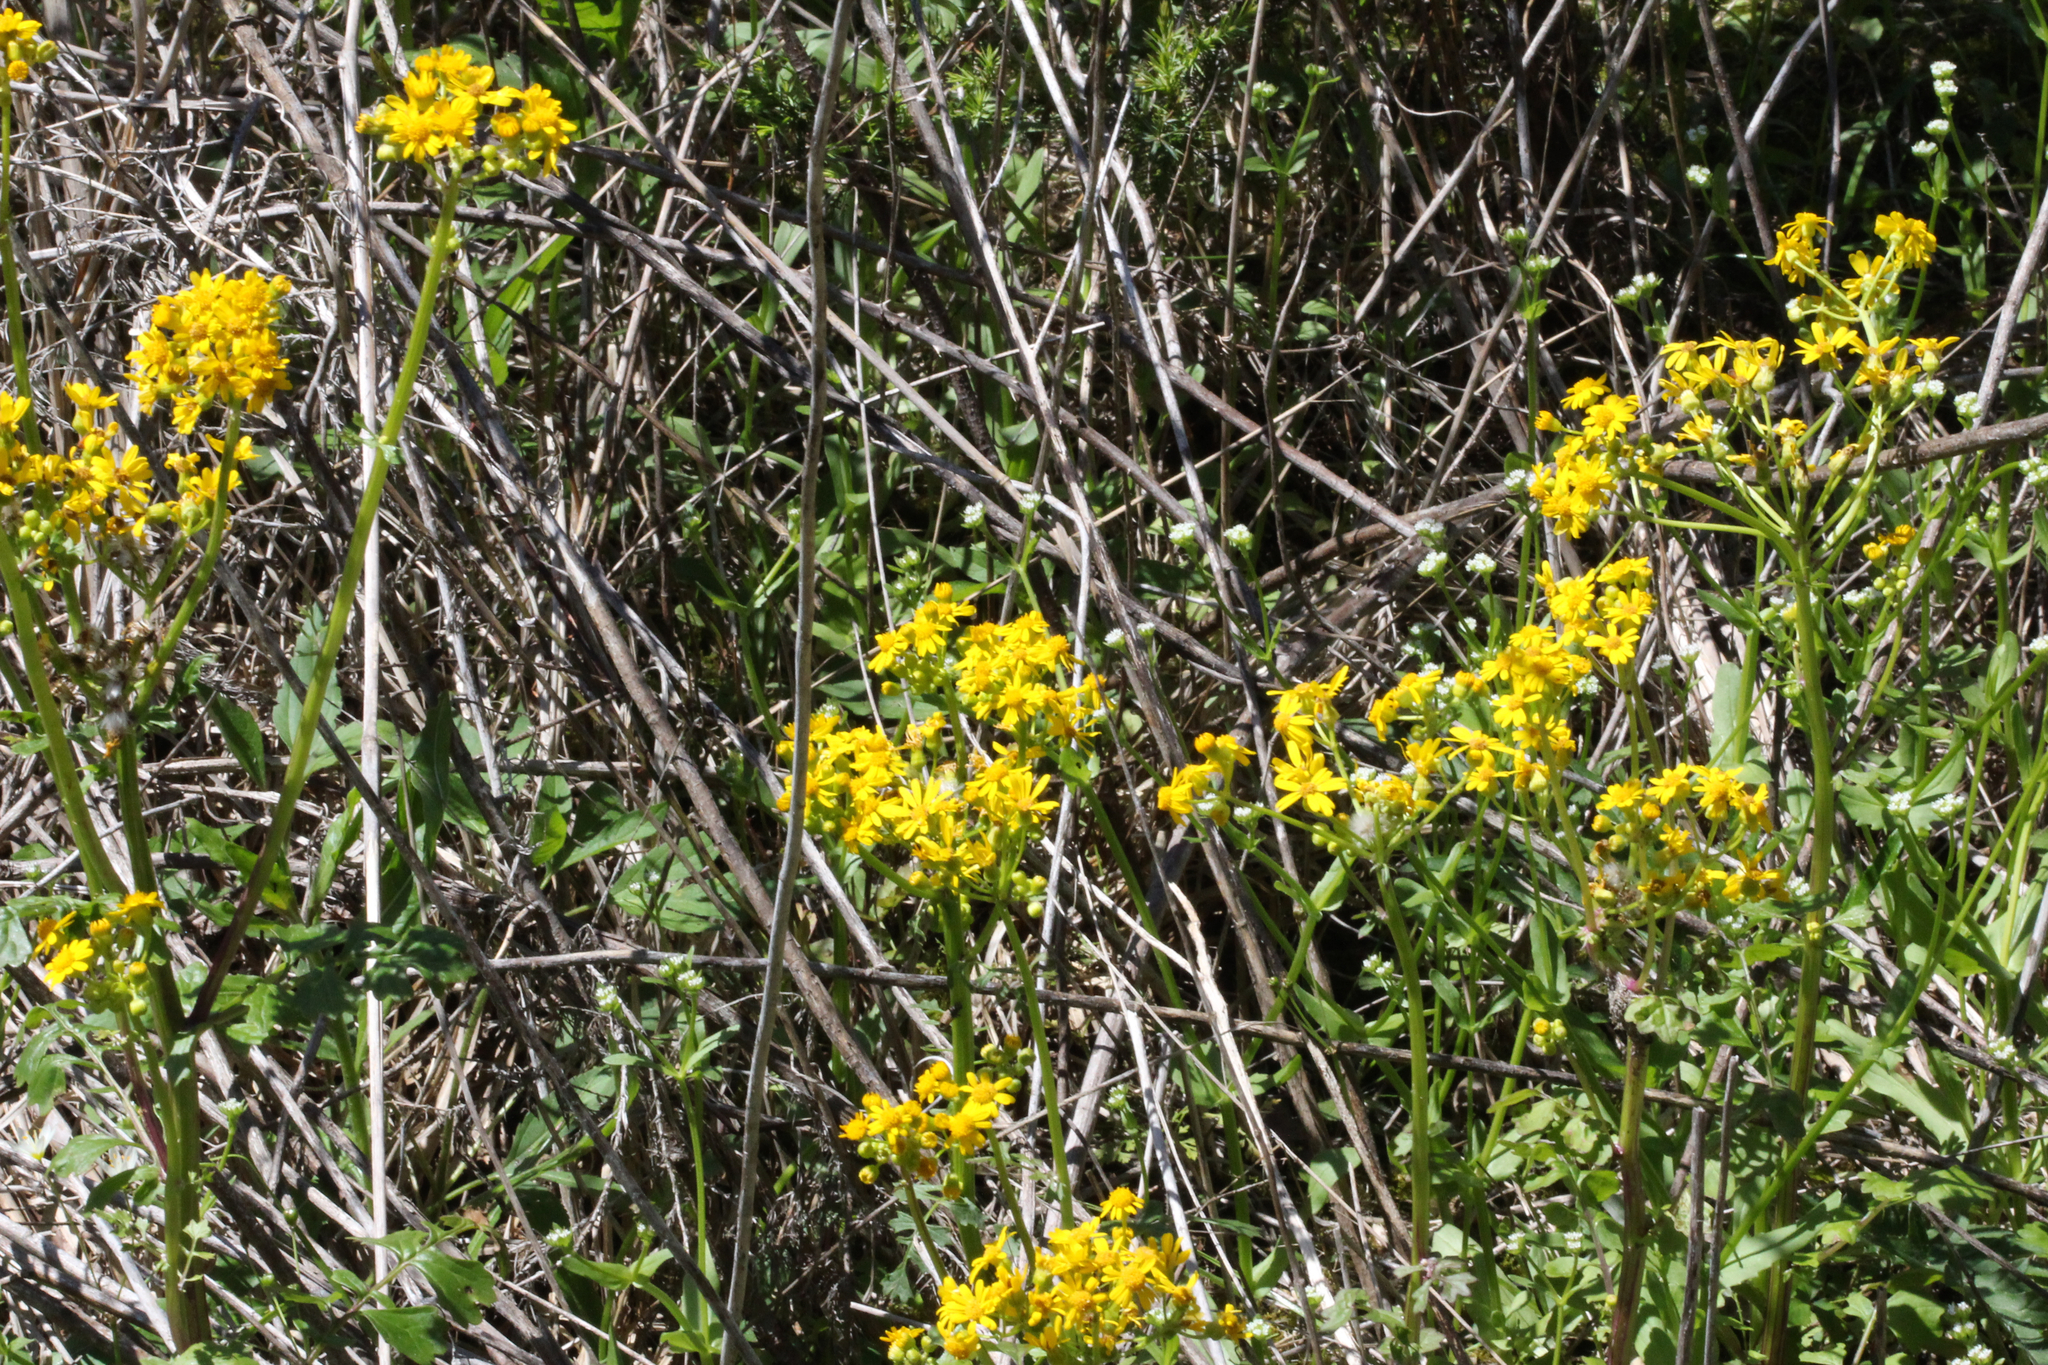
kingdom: Plantae
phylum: Tracheophyta
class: Magnoliopsida
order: Asterales
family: Asteraceae
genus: Packera
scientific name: Packera glabella
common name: Butterweed
